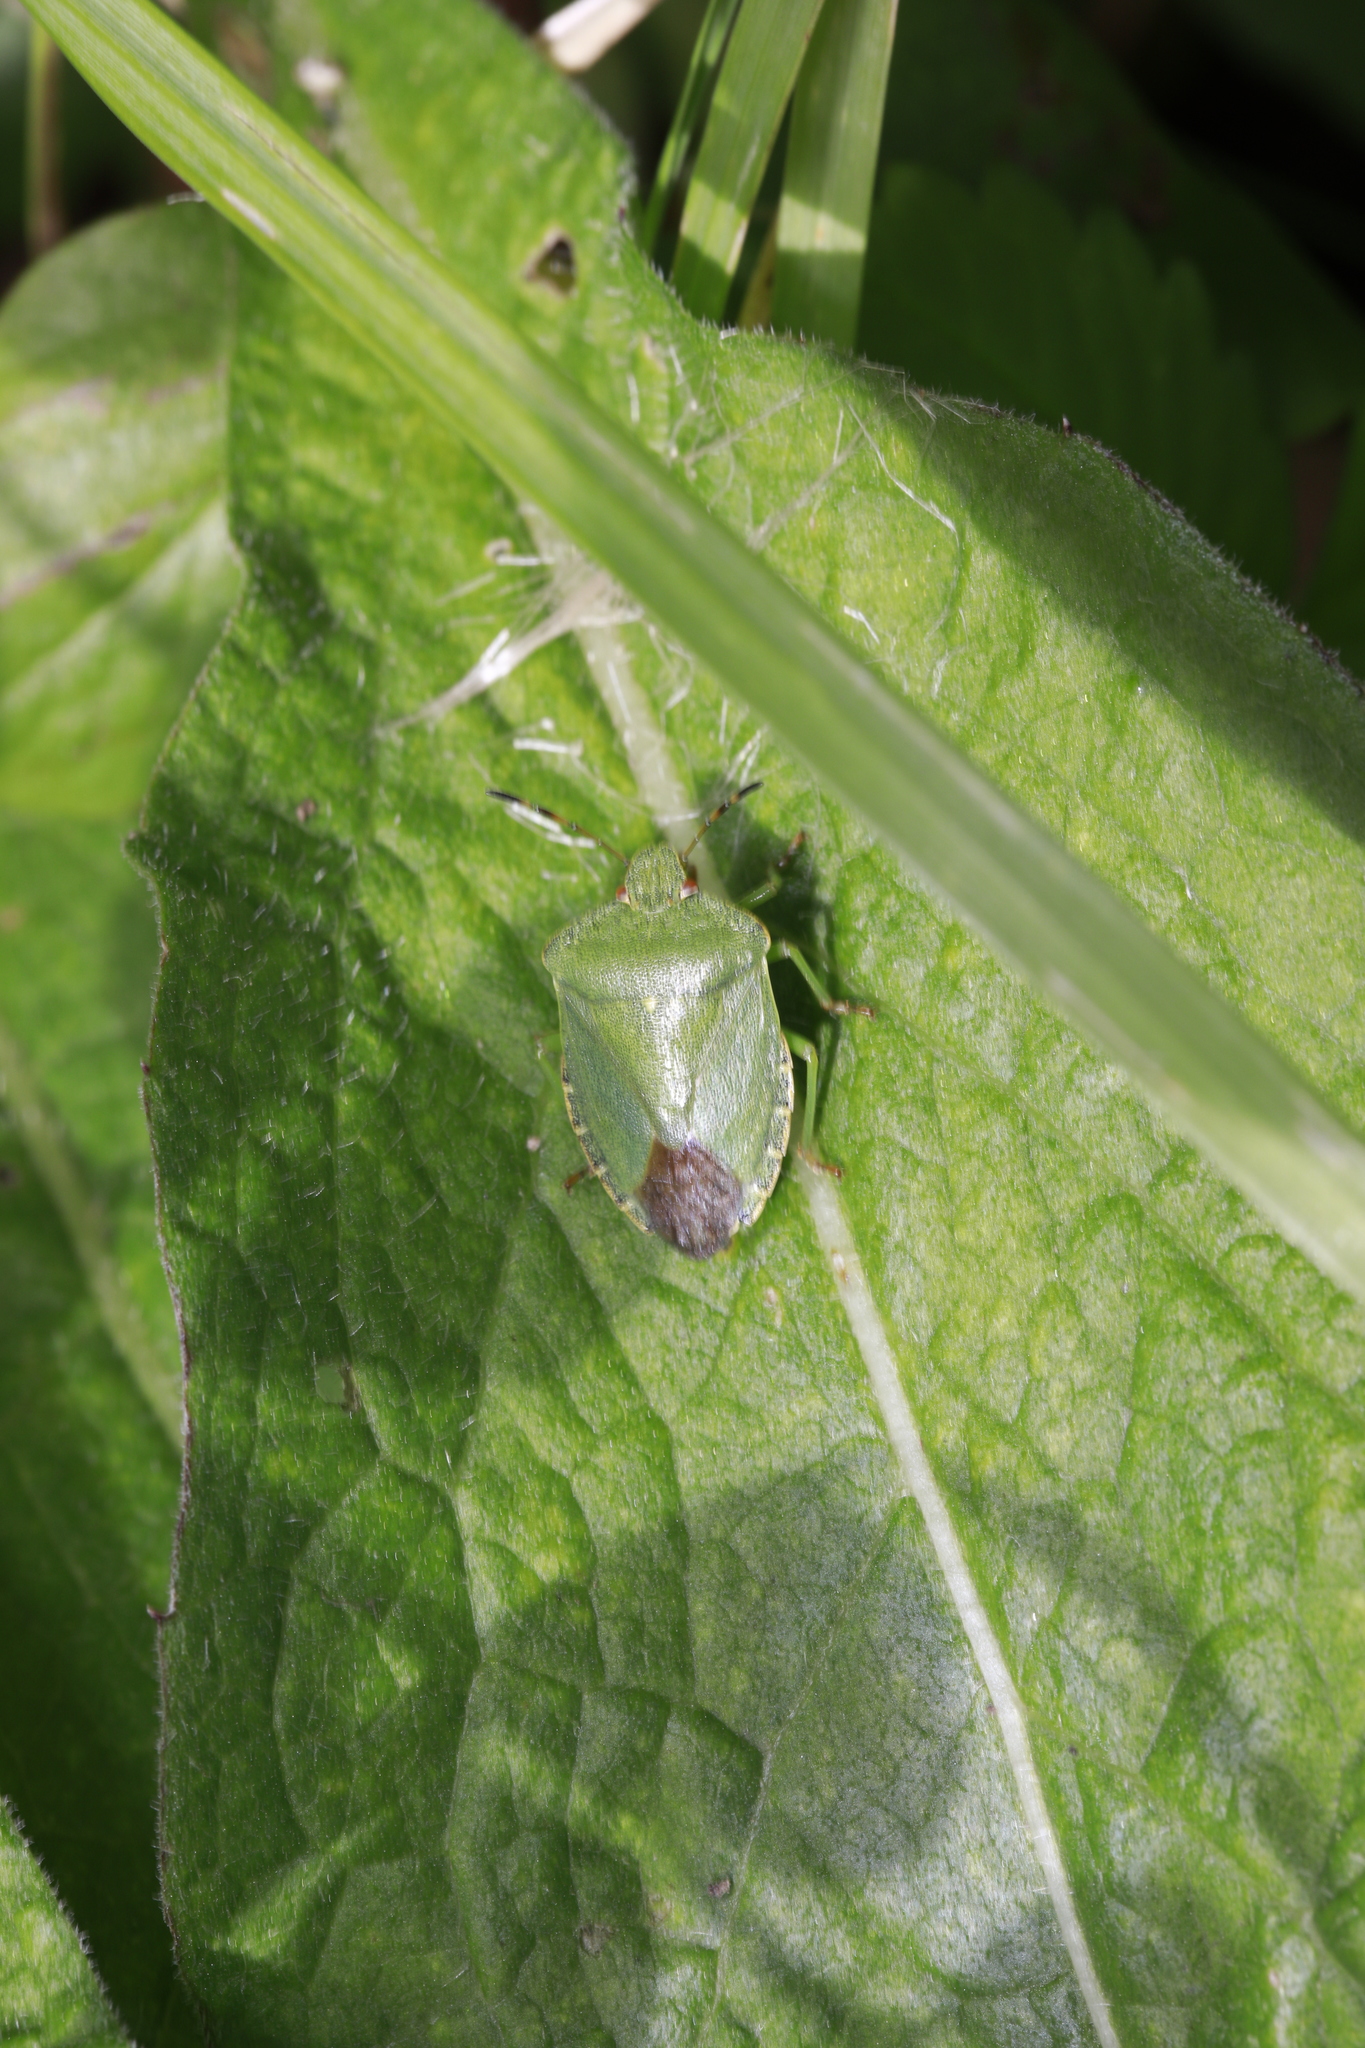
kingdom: Animalia
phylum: Arthropoda
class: Insecta
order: Hemiptera
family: Pentatomidae
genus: Palomena
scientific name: Palomena prasina
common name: Green shieldbug
